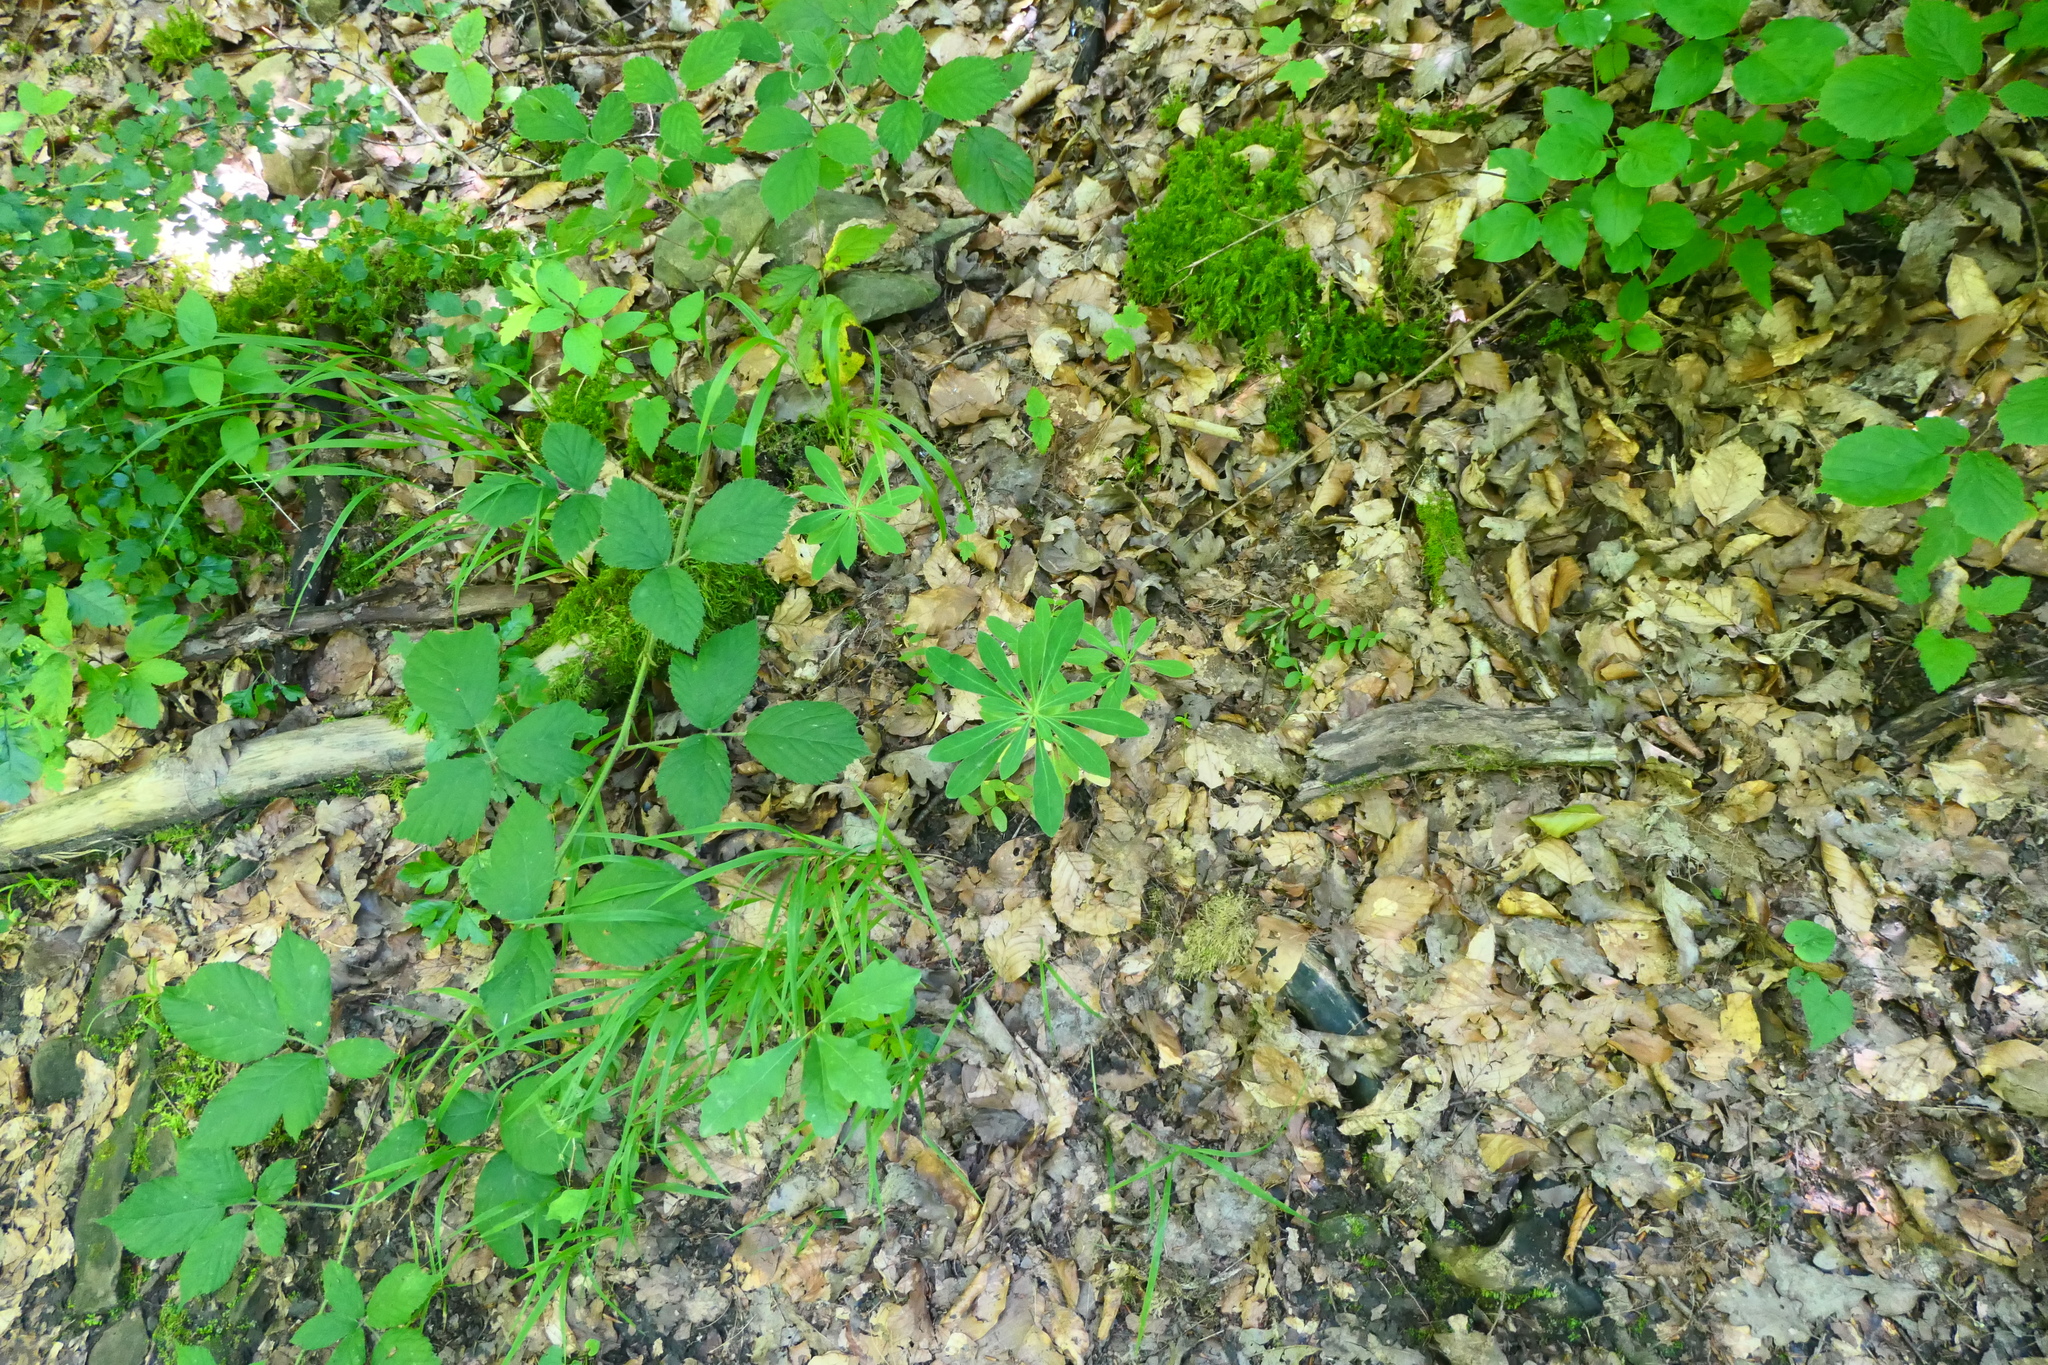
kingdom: Plantae
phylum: Tracheophyta
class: Magnoliopsida
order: Malpighiales
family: Euphorbiaceae
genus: Euphorbia
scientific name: Euphorbia amygdaloides
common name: Wood spurge
